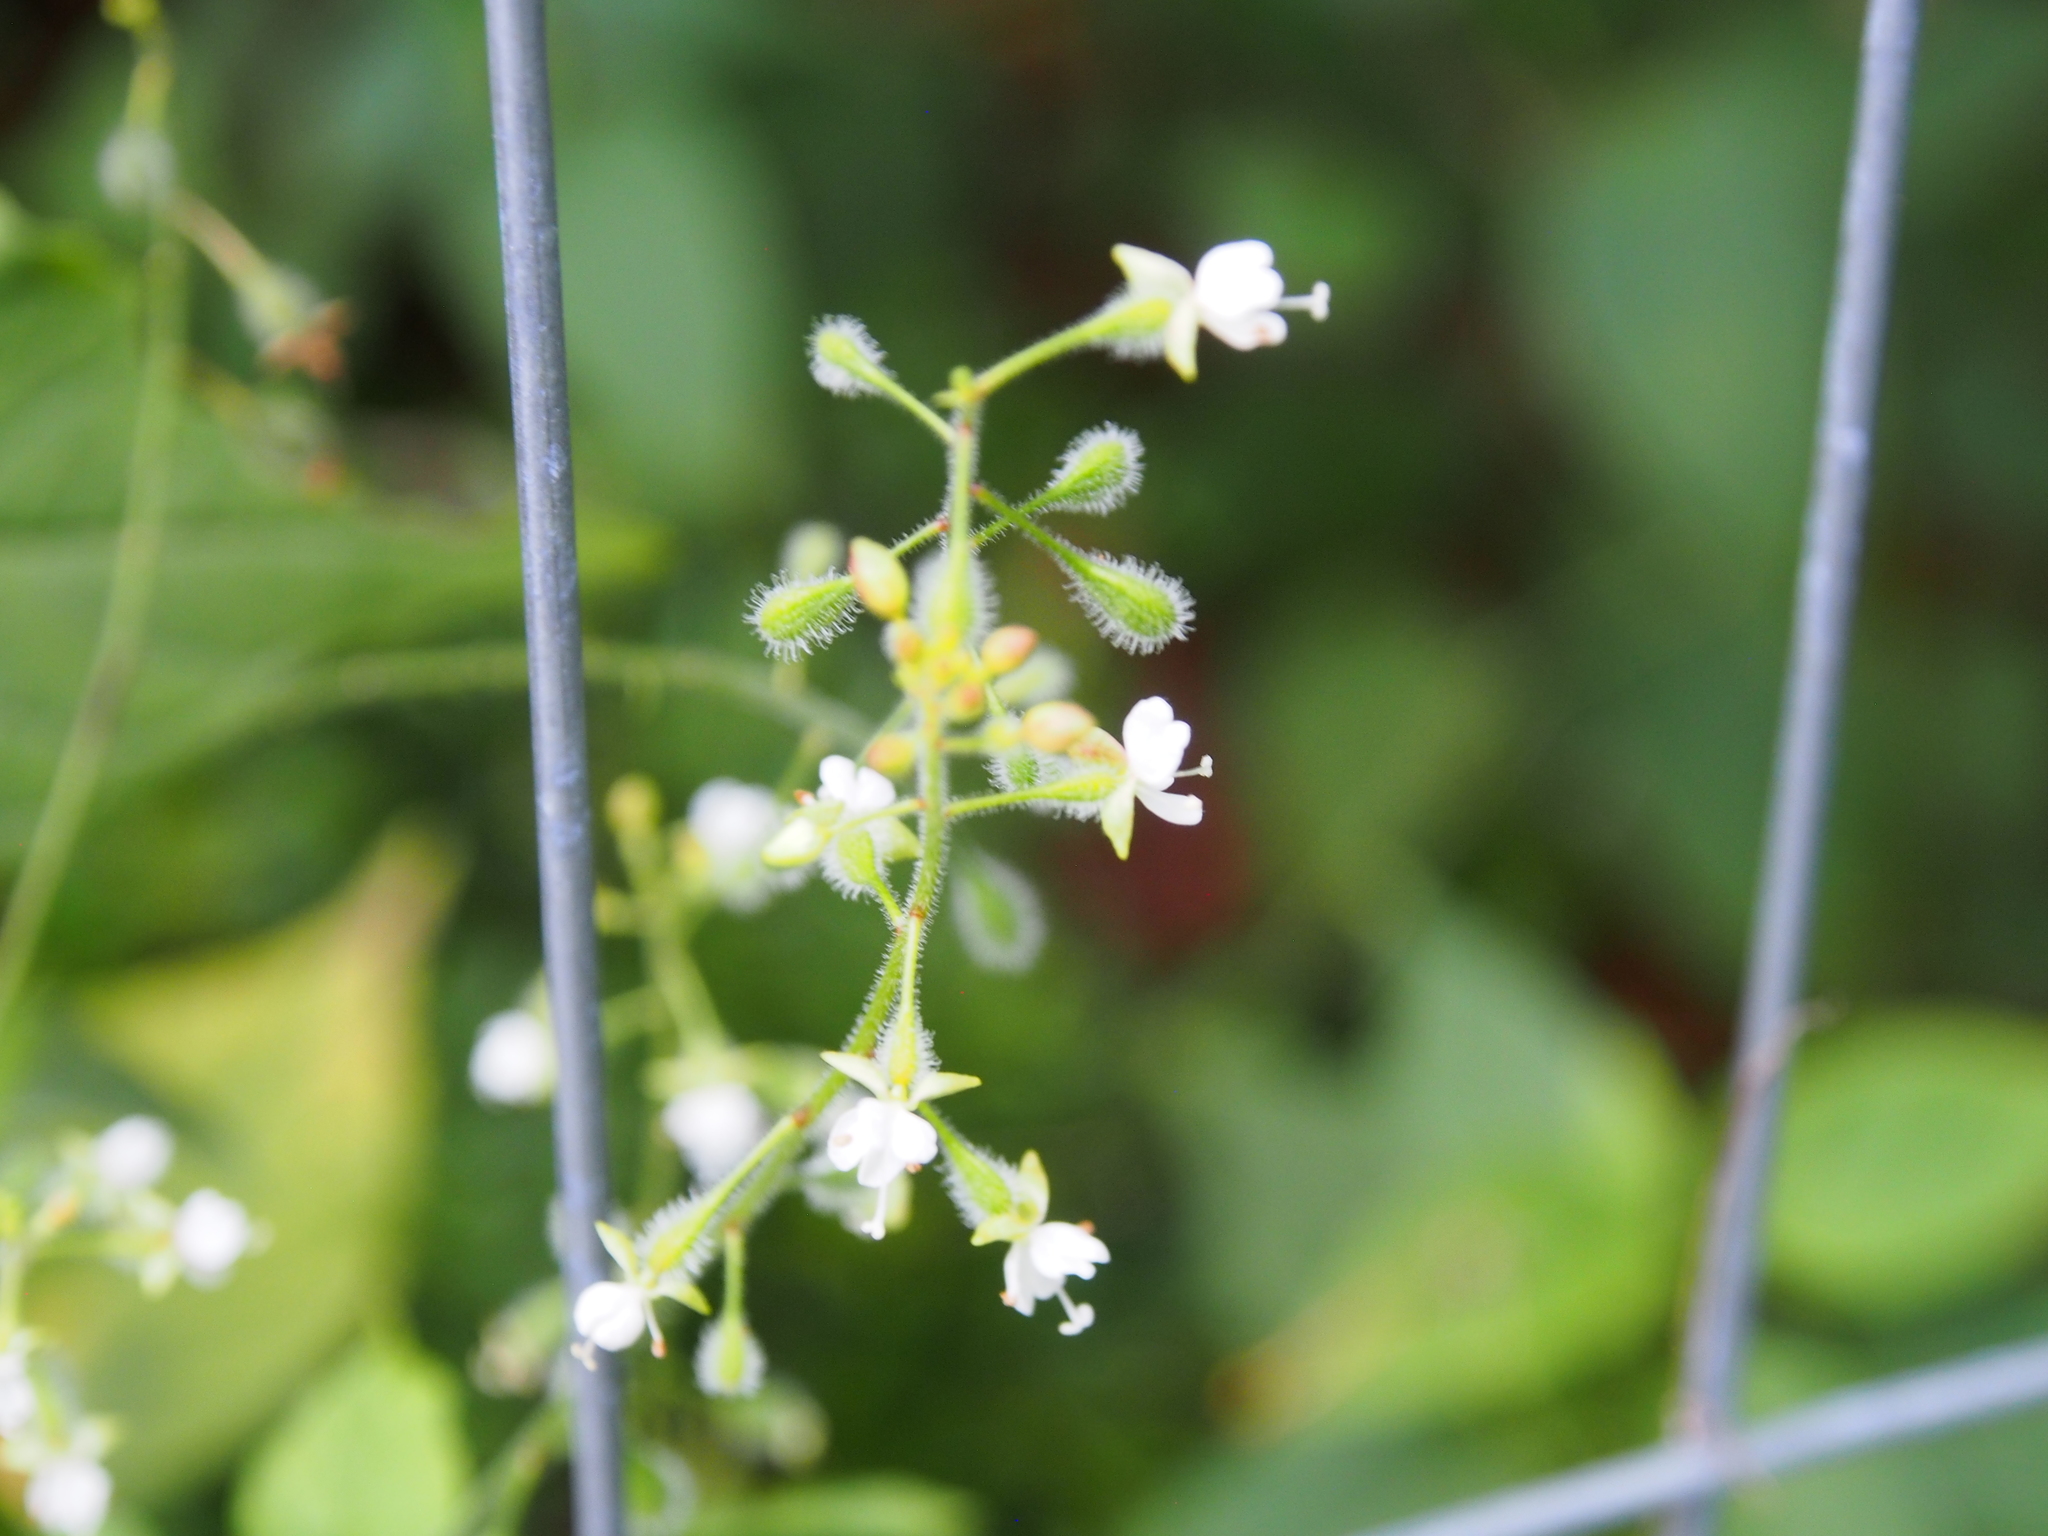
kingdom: Plantae
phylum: Tracheophyta
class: Magnoliopsida
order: Myrtales
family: Onagraceae
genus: Circaea
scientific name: Circaea canadensis
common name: Broad-leaved enchanter's nightshade
